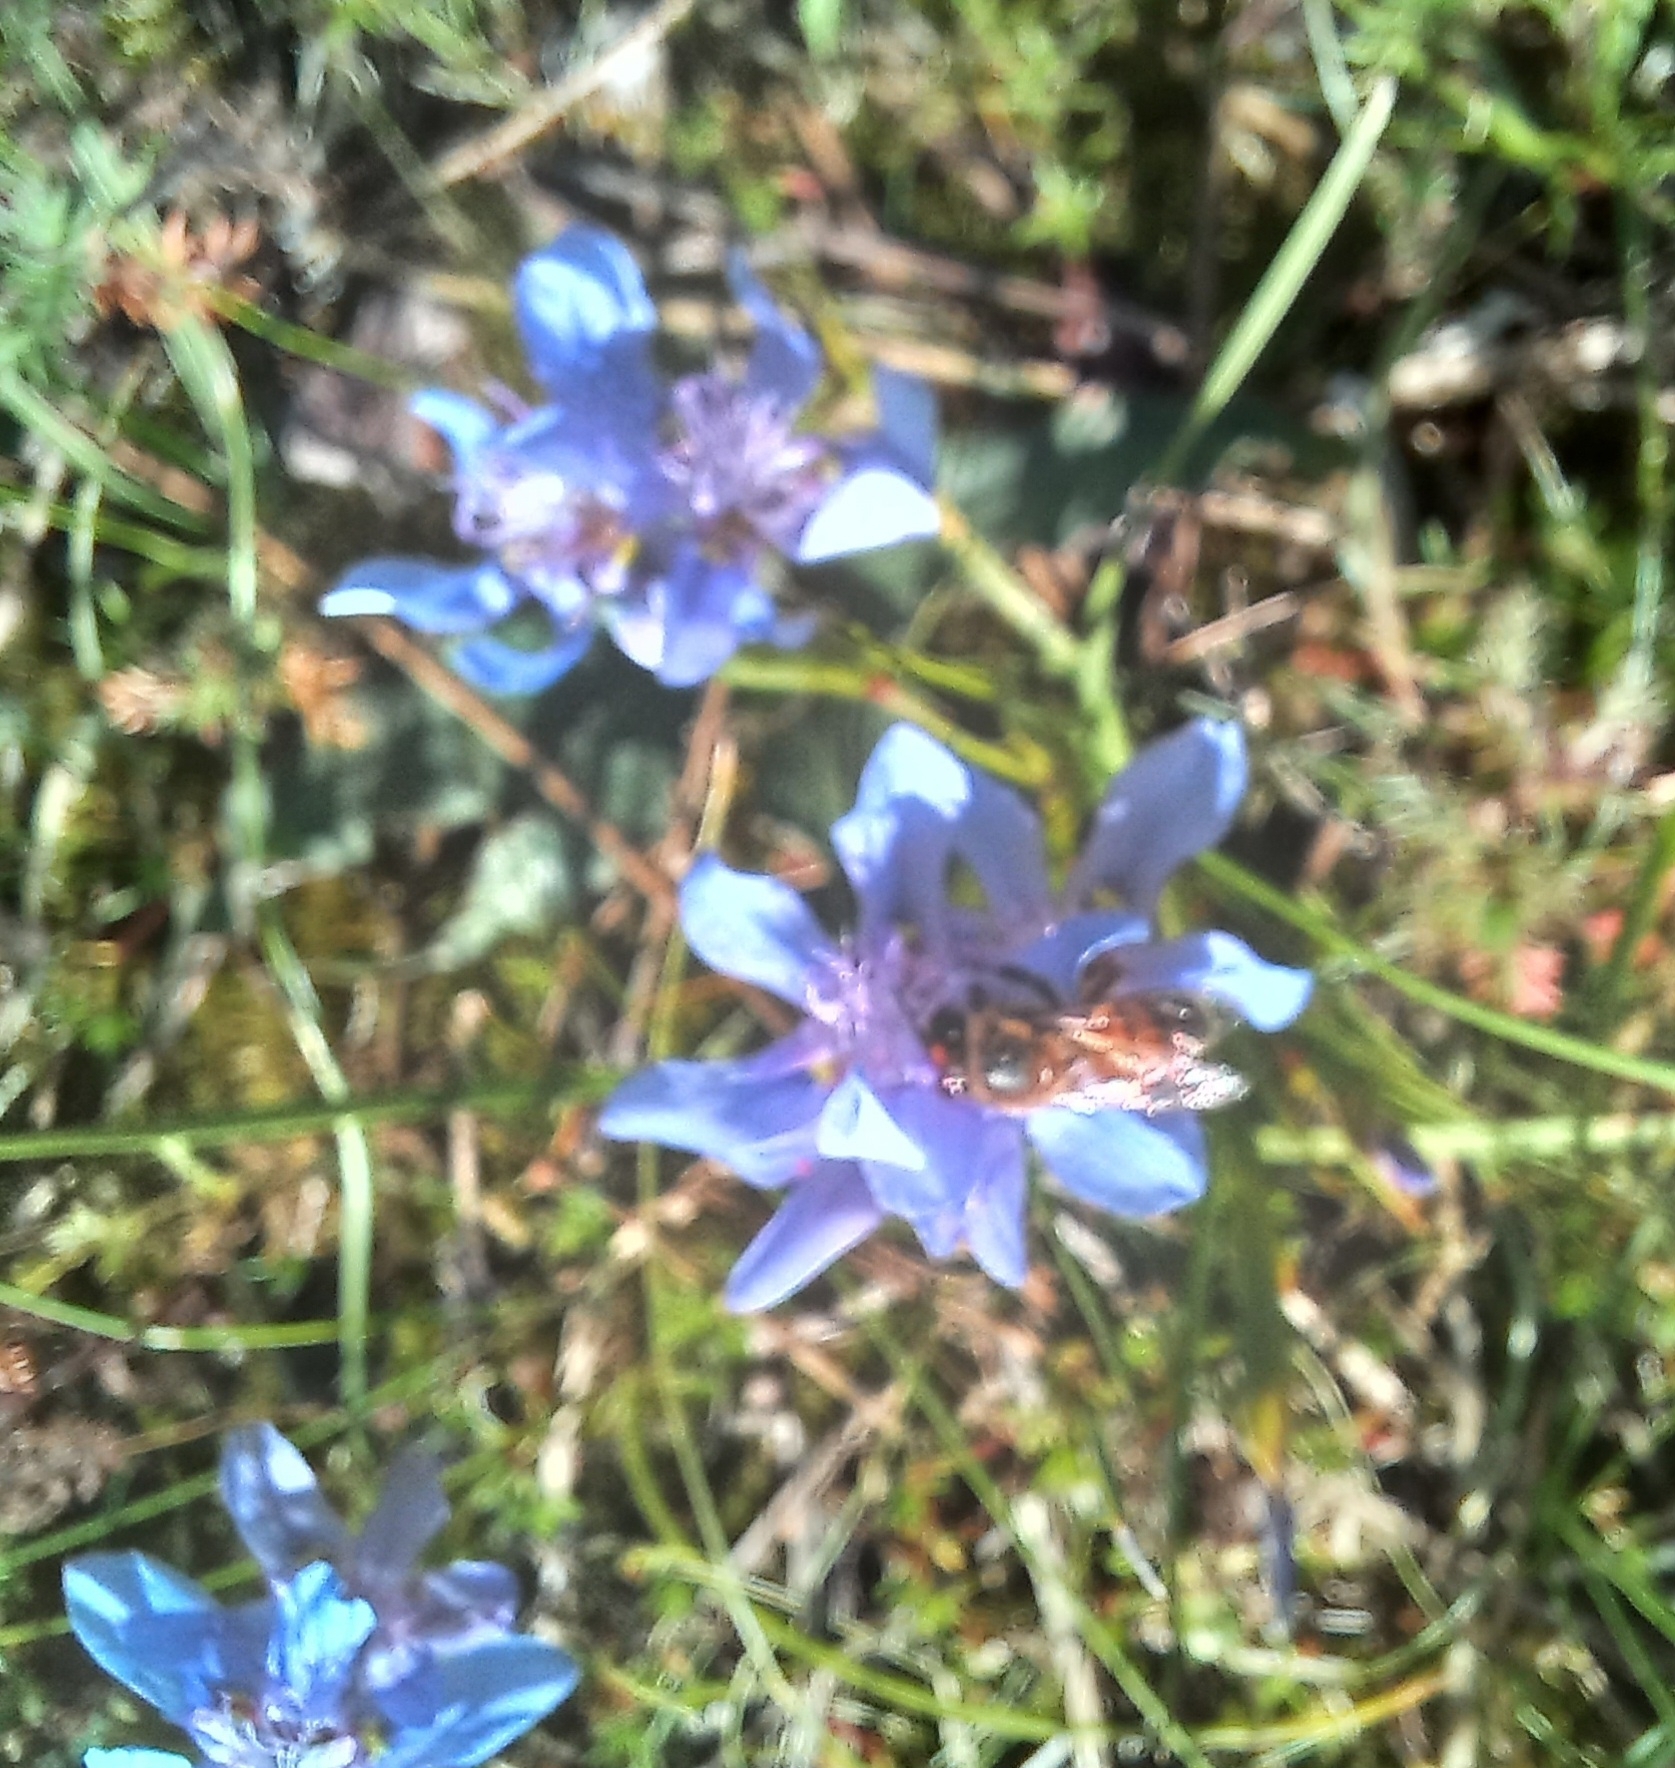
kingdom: Animalia
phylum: Arthropoda
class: Insecta
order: Hymenoptera
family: Apidae
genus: Apis
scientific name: Apis mellifera
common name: Honey bee
